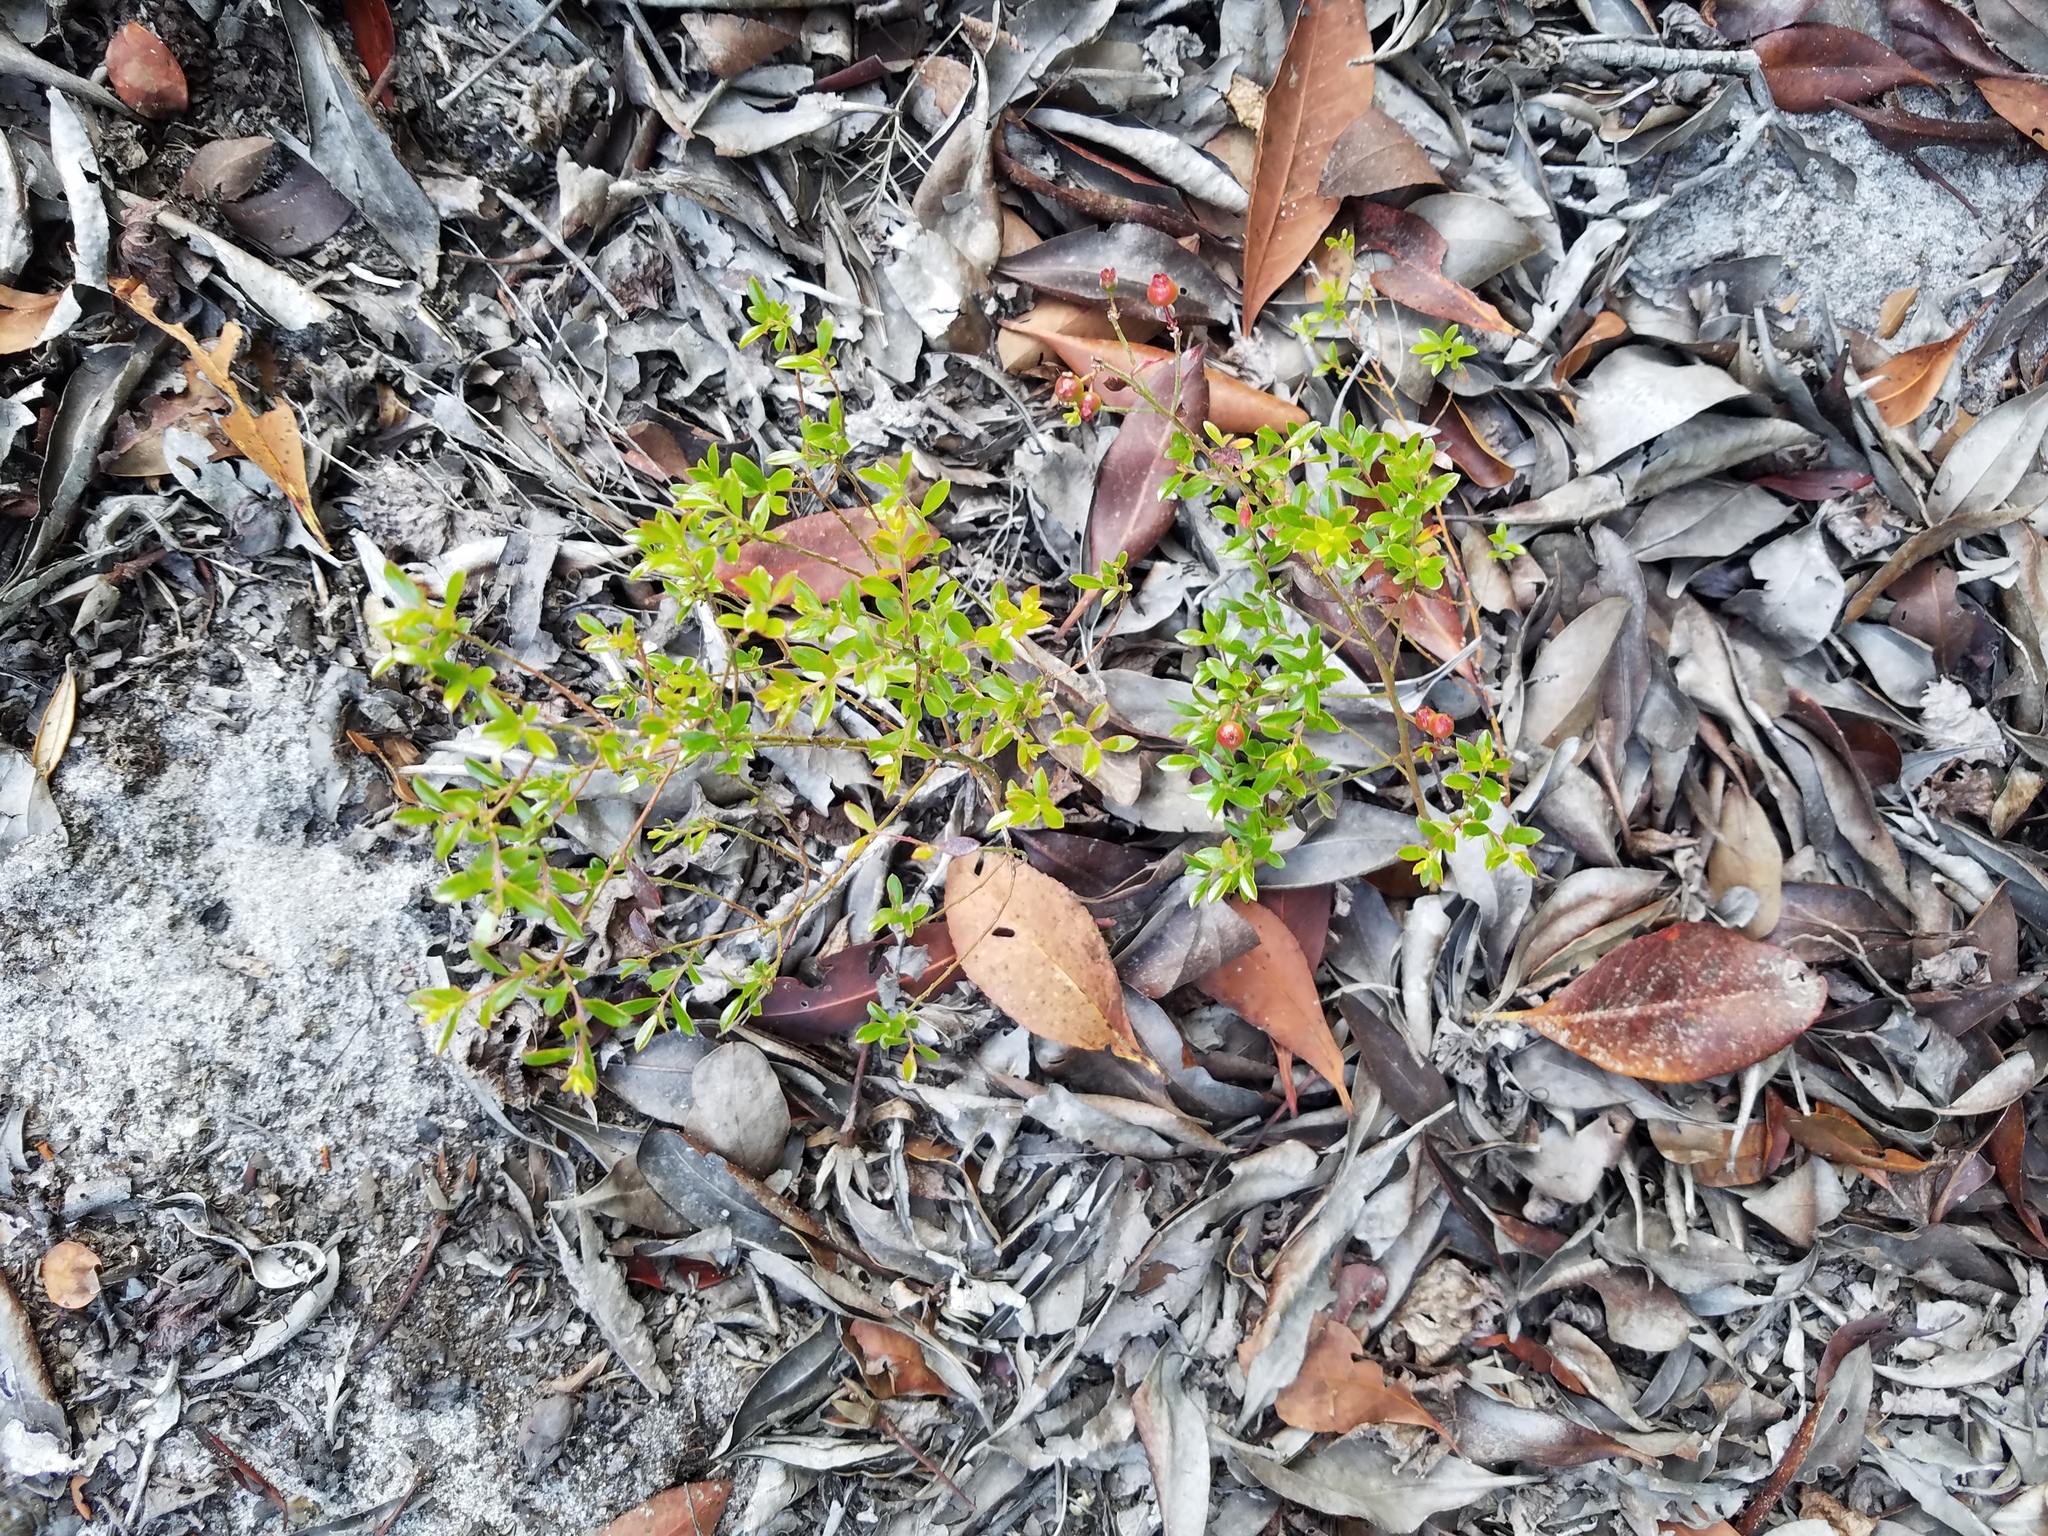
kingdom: Plantae
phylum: Tracheophyta
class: Magnoliopsida
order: Ericales
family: Ericaceae
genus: Vaccinium
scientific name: Vaccinium myrsinites
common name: Evergreen blueberry
